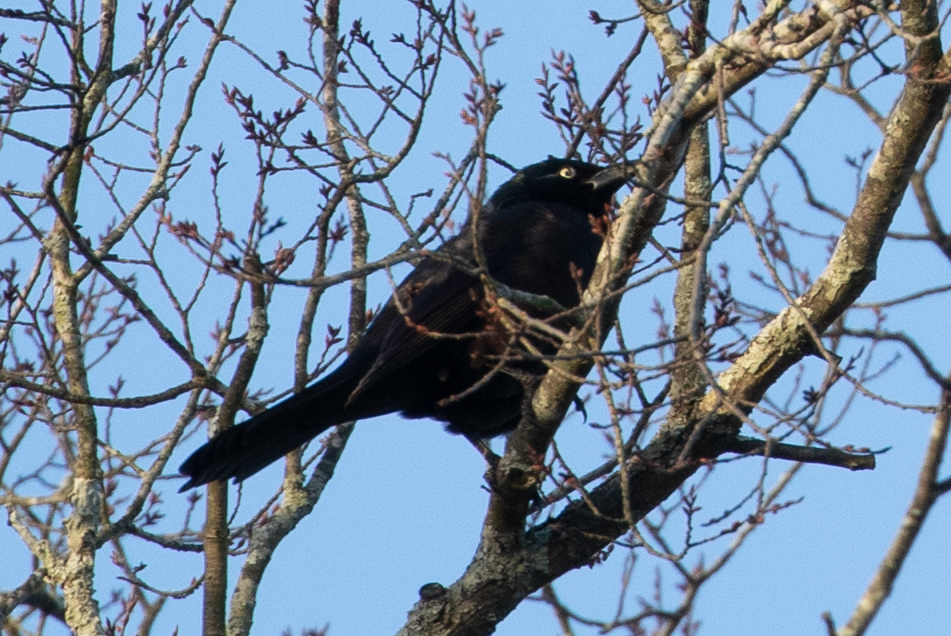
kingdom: Animalia
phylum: Chordata
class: Aves
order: Passeriformes
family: Icteridae
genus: Quiscalus
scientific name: Quiscalus quiscula
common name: Common grackle
